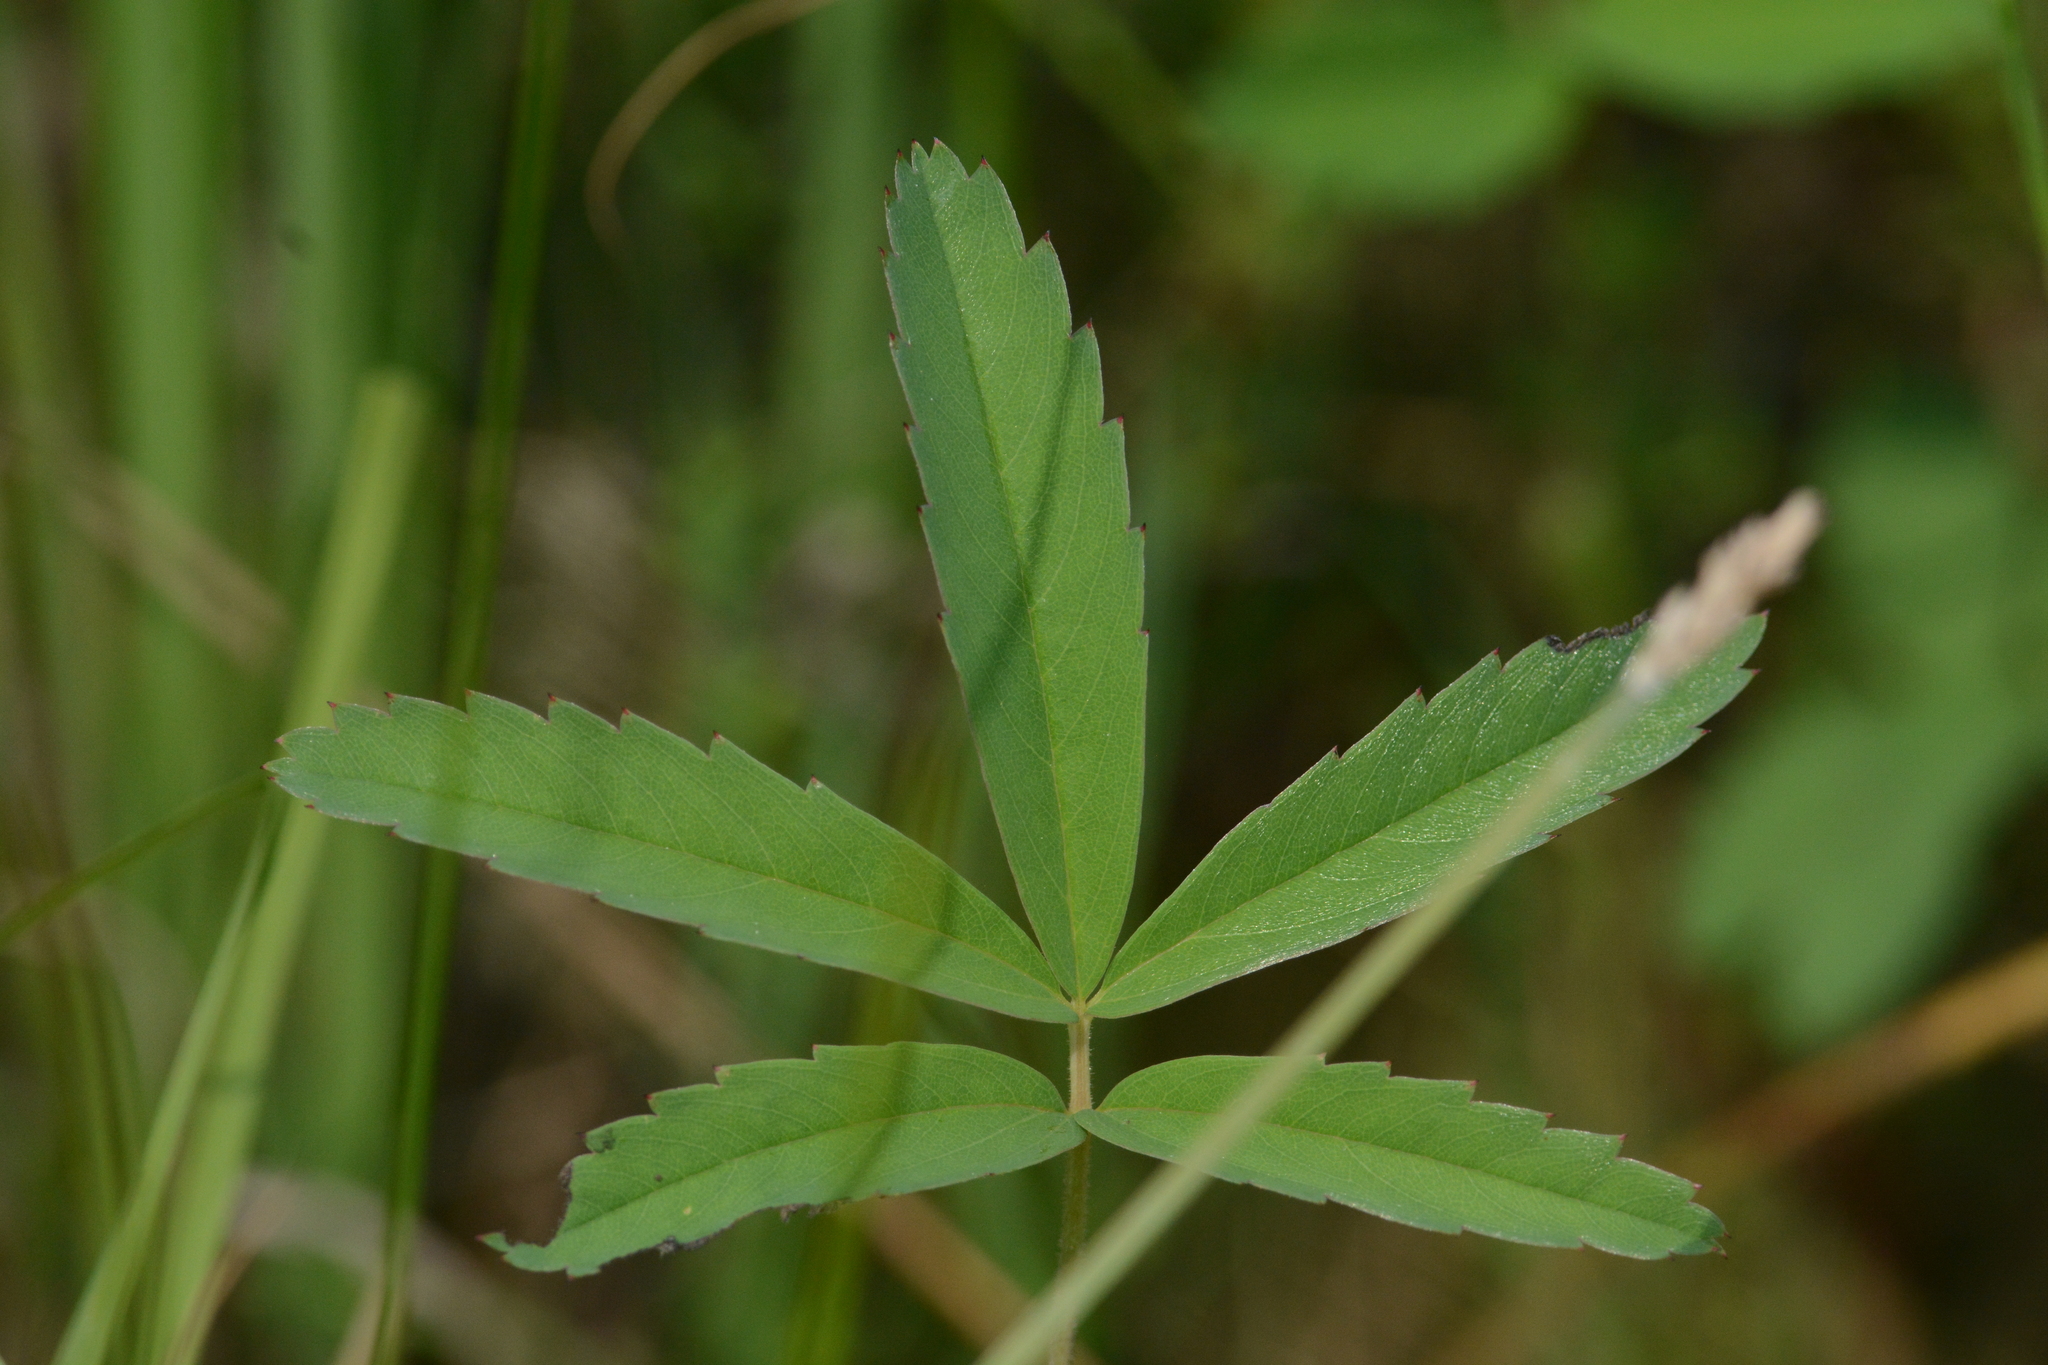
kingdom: Plantae
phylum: Tracheophyta
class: Magnoliopsida
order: Rosales
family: Rosaceae
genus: Comarum
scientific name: Comarum palustre
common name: Marsh cinquefoil
